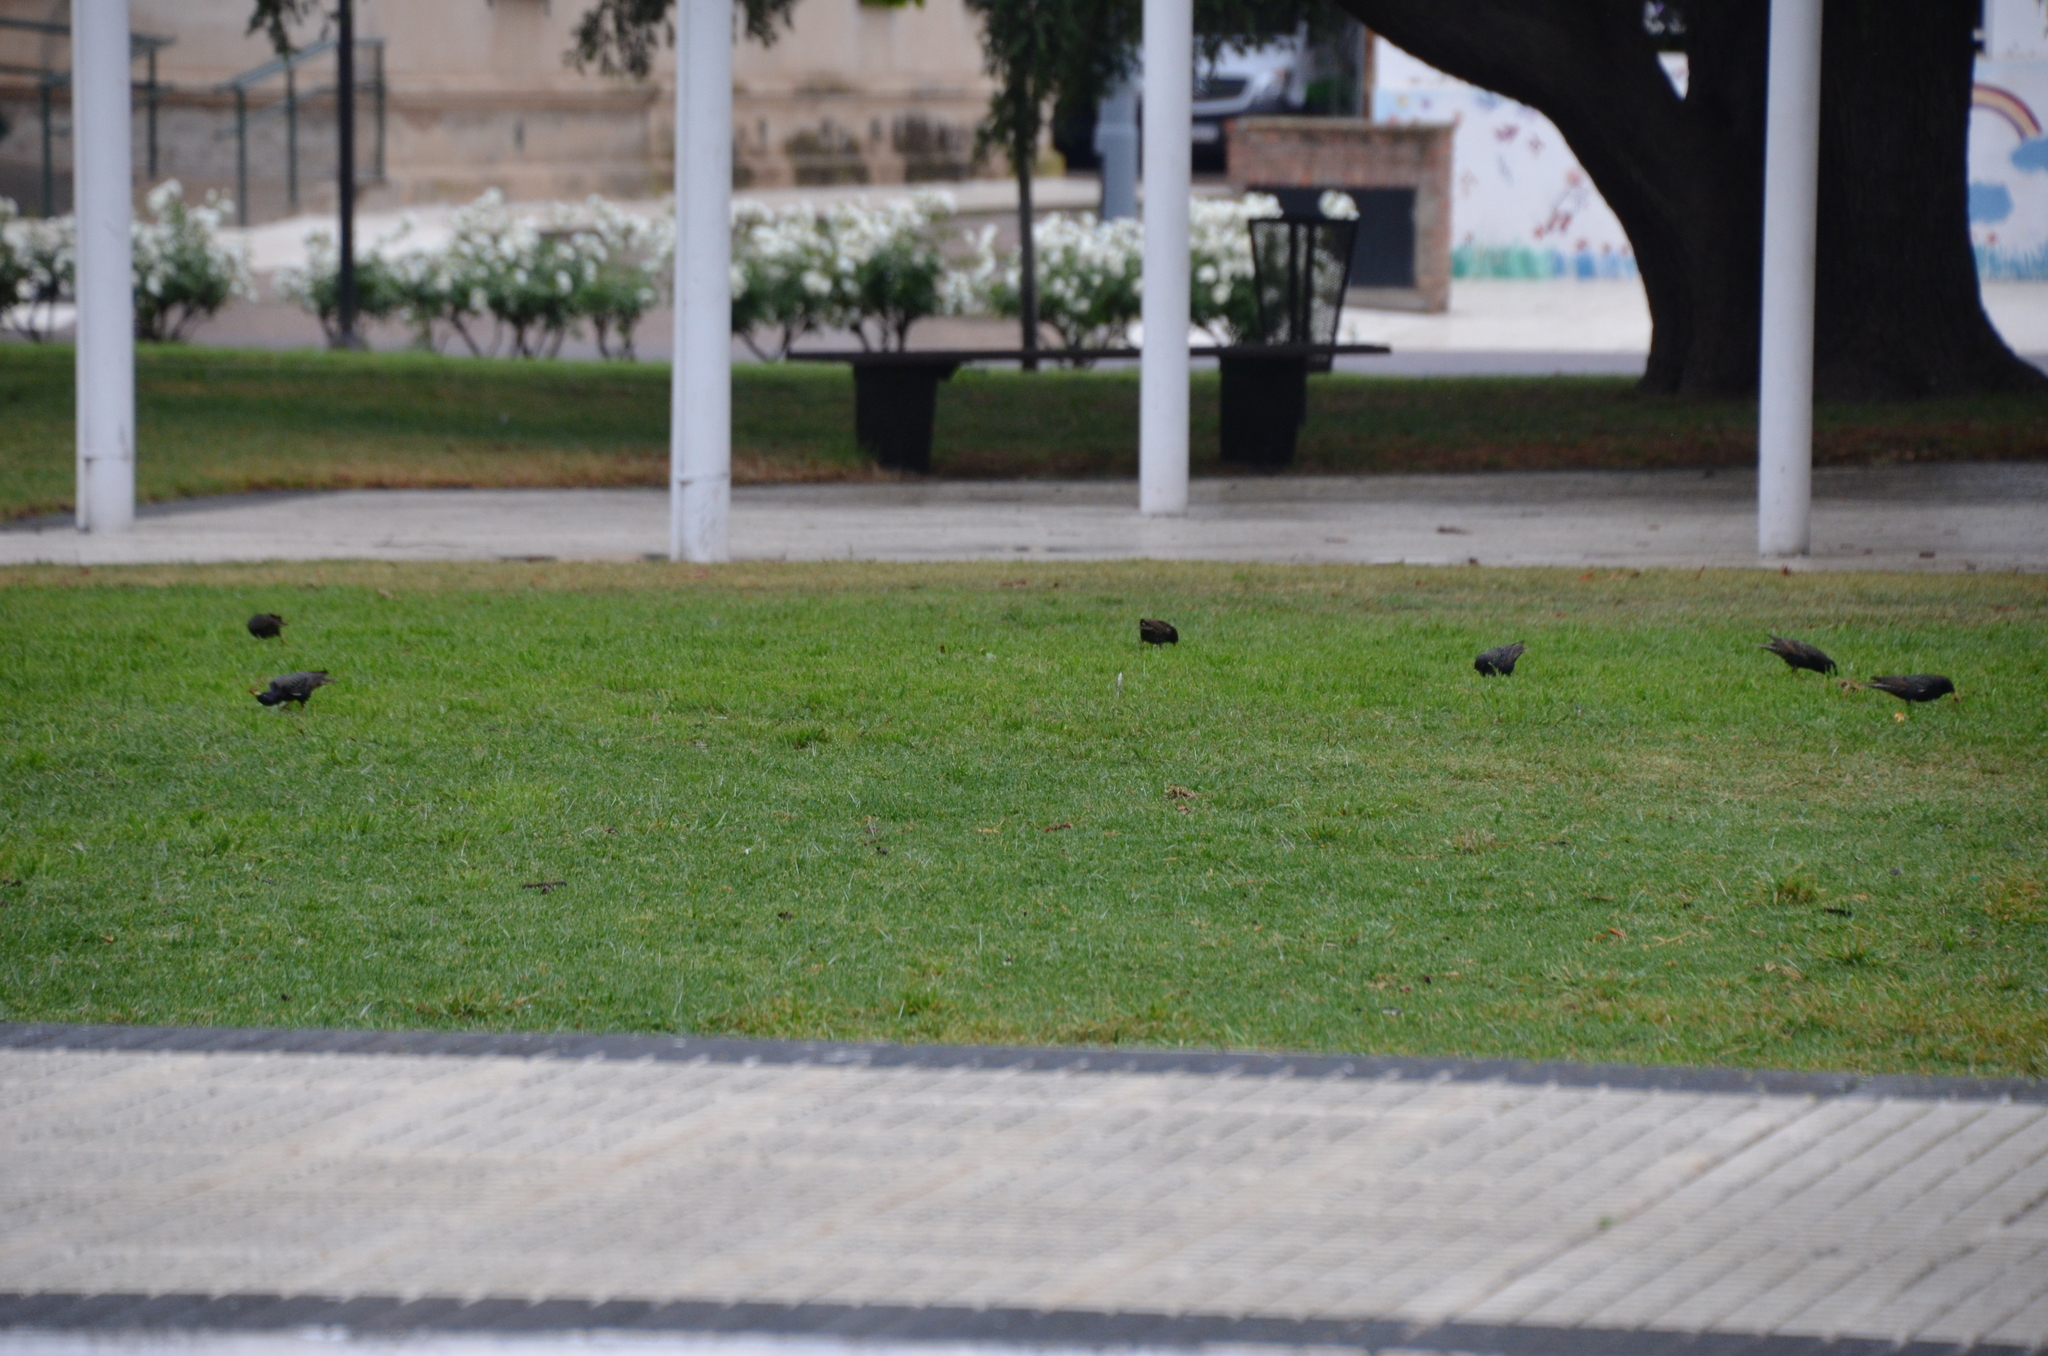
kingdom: Animalia
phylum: Chordata
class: Aves
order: Passeriformes
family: Sturnidae
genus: Sturnus
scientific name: Sturnus vulgaris
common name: Common starling
